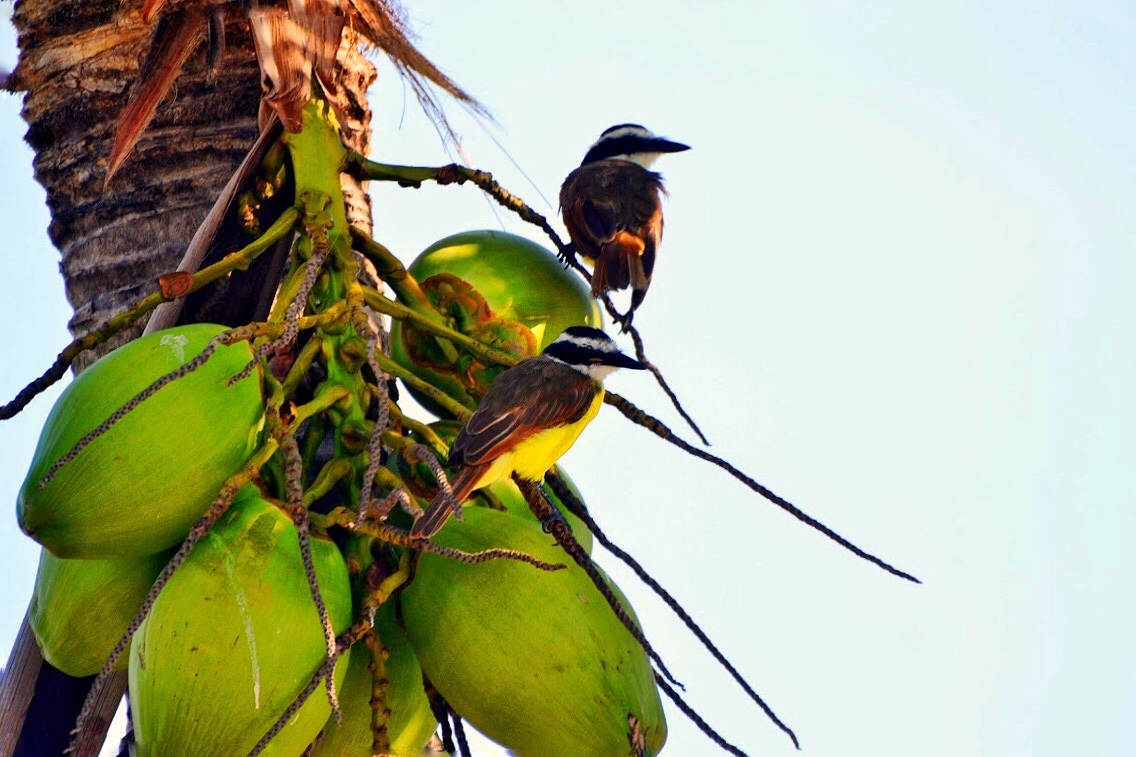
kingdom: Animalia
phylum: Chordata
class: Aves
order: Passeriformes
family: Tyrannidae
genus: Pitangus
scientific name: Pitangus sulphuratus
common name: Great kiskadee
